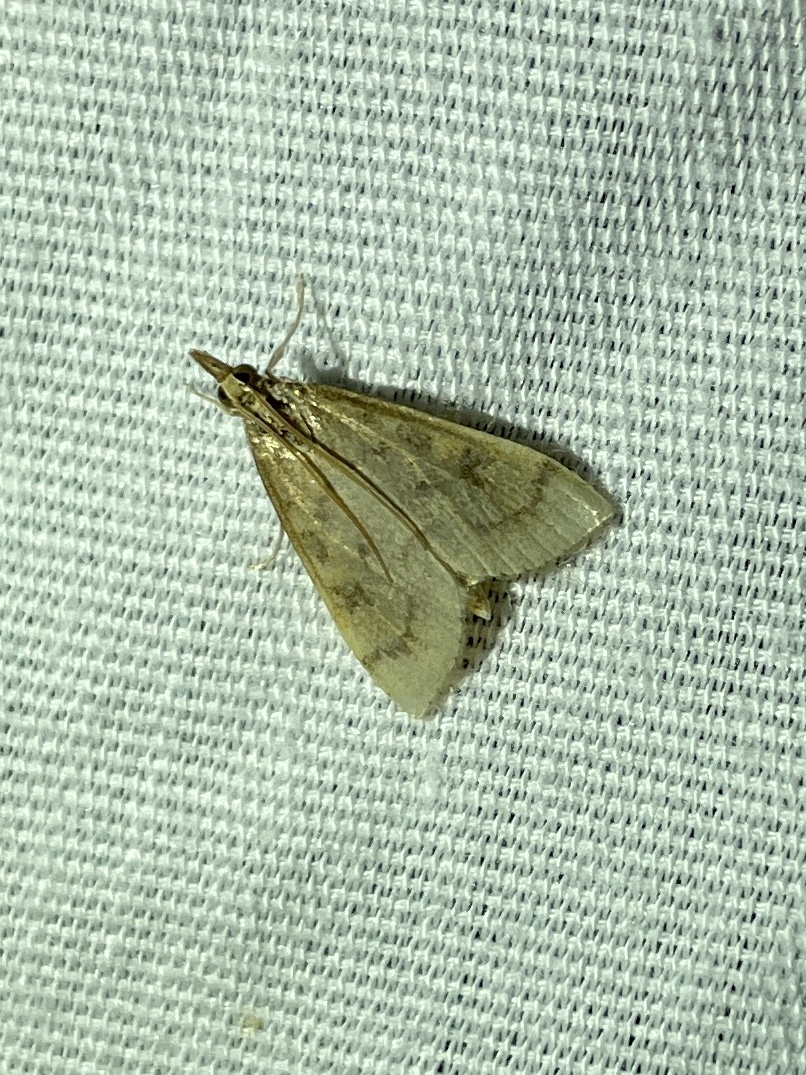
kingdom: Animalia
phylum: Arthropoda
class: Insecta
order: Lepidoptera
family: Crambidae
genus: Udea
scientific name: Udea rubigalis
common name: Celery leaftier moth
